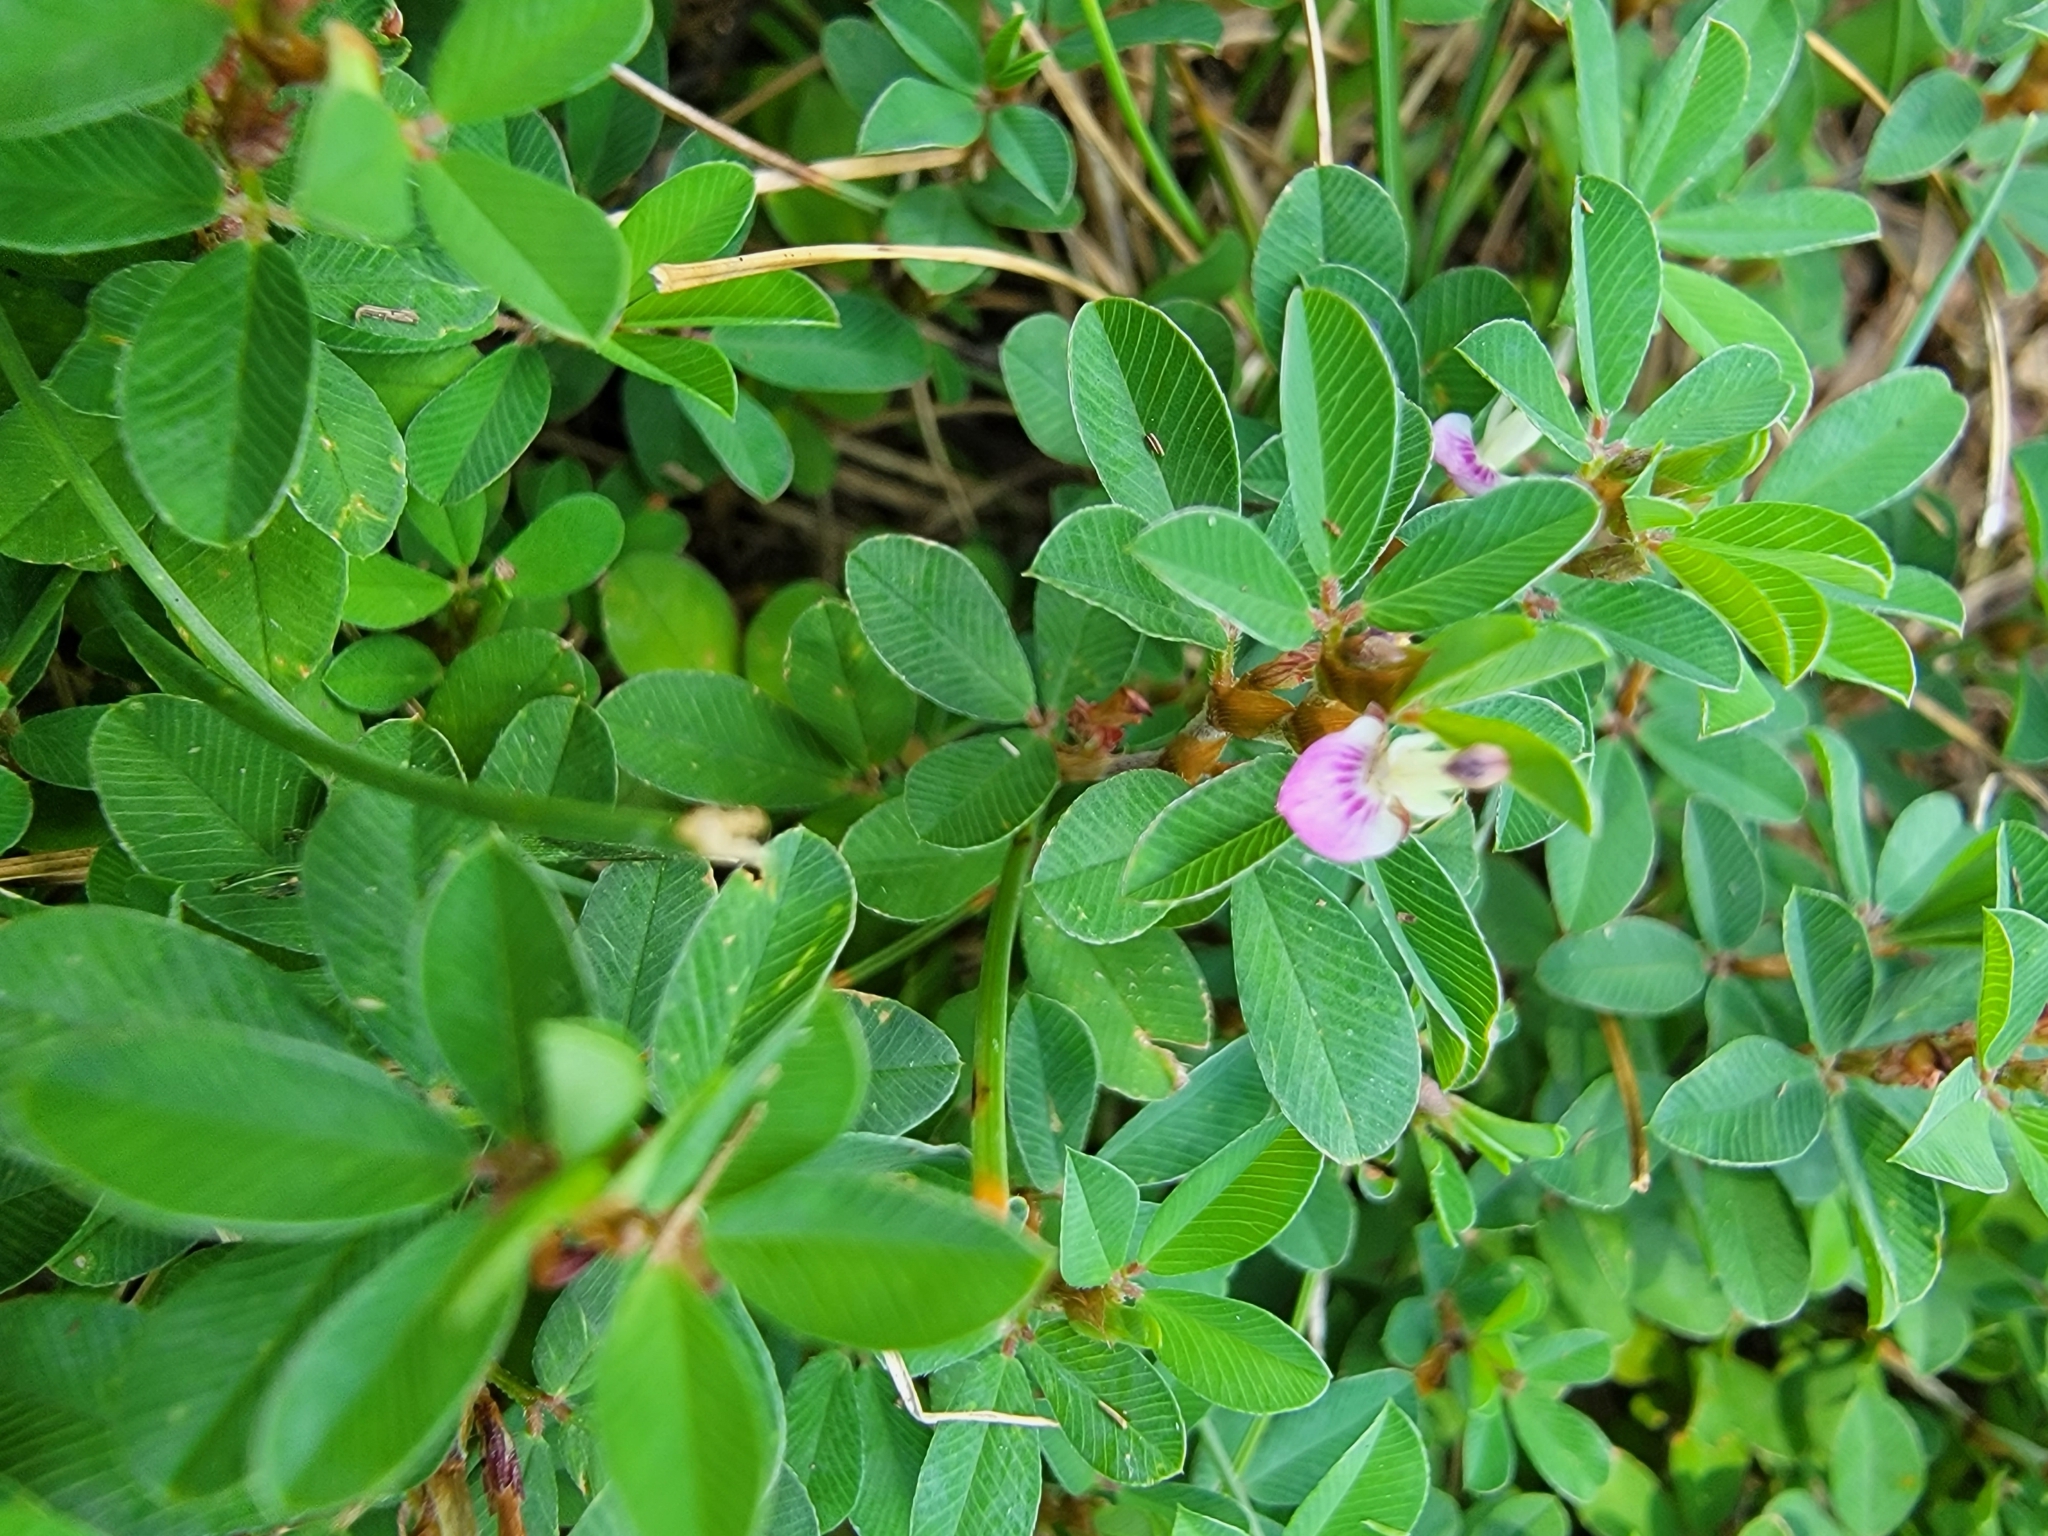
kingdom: Plantae
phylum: Tracheophyta
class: Magnoliopsida
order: Fabales
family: Fabaceae
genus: Kummerowia
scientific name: Kummerowia striata
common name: Japanese clover
